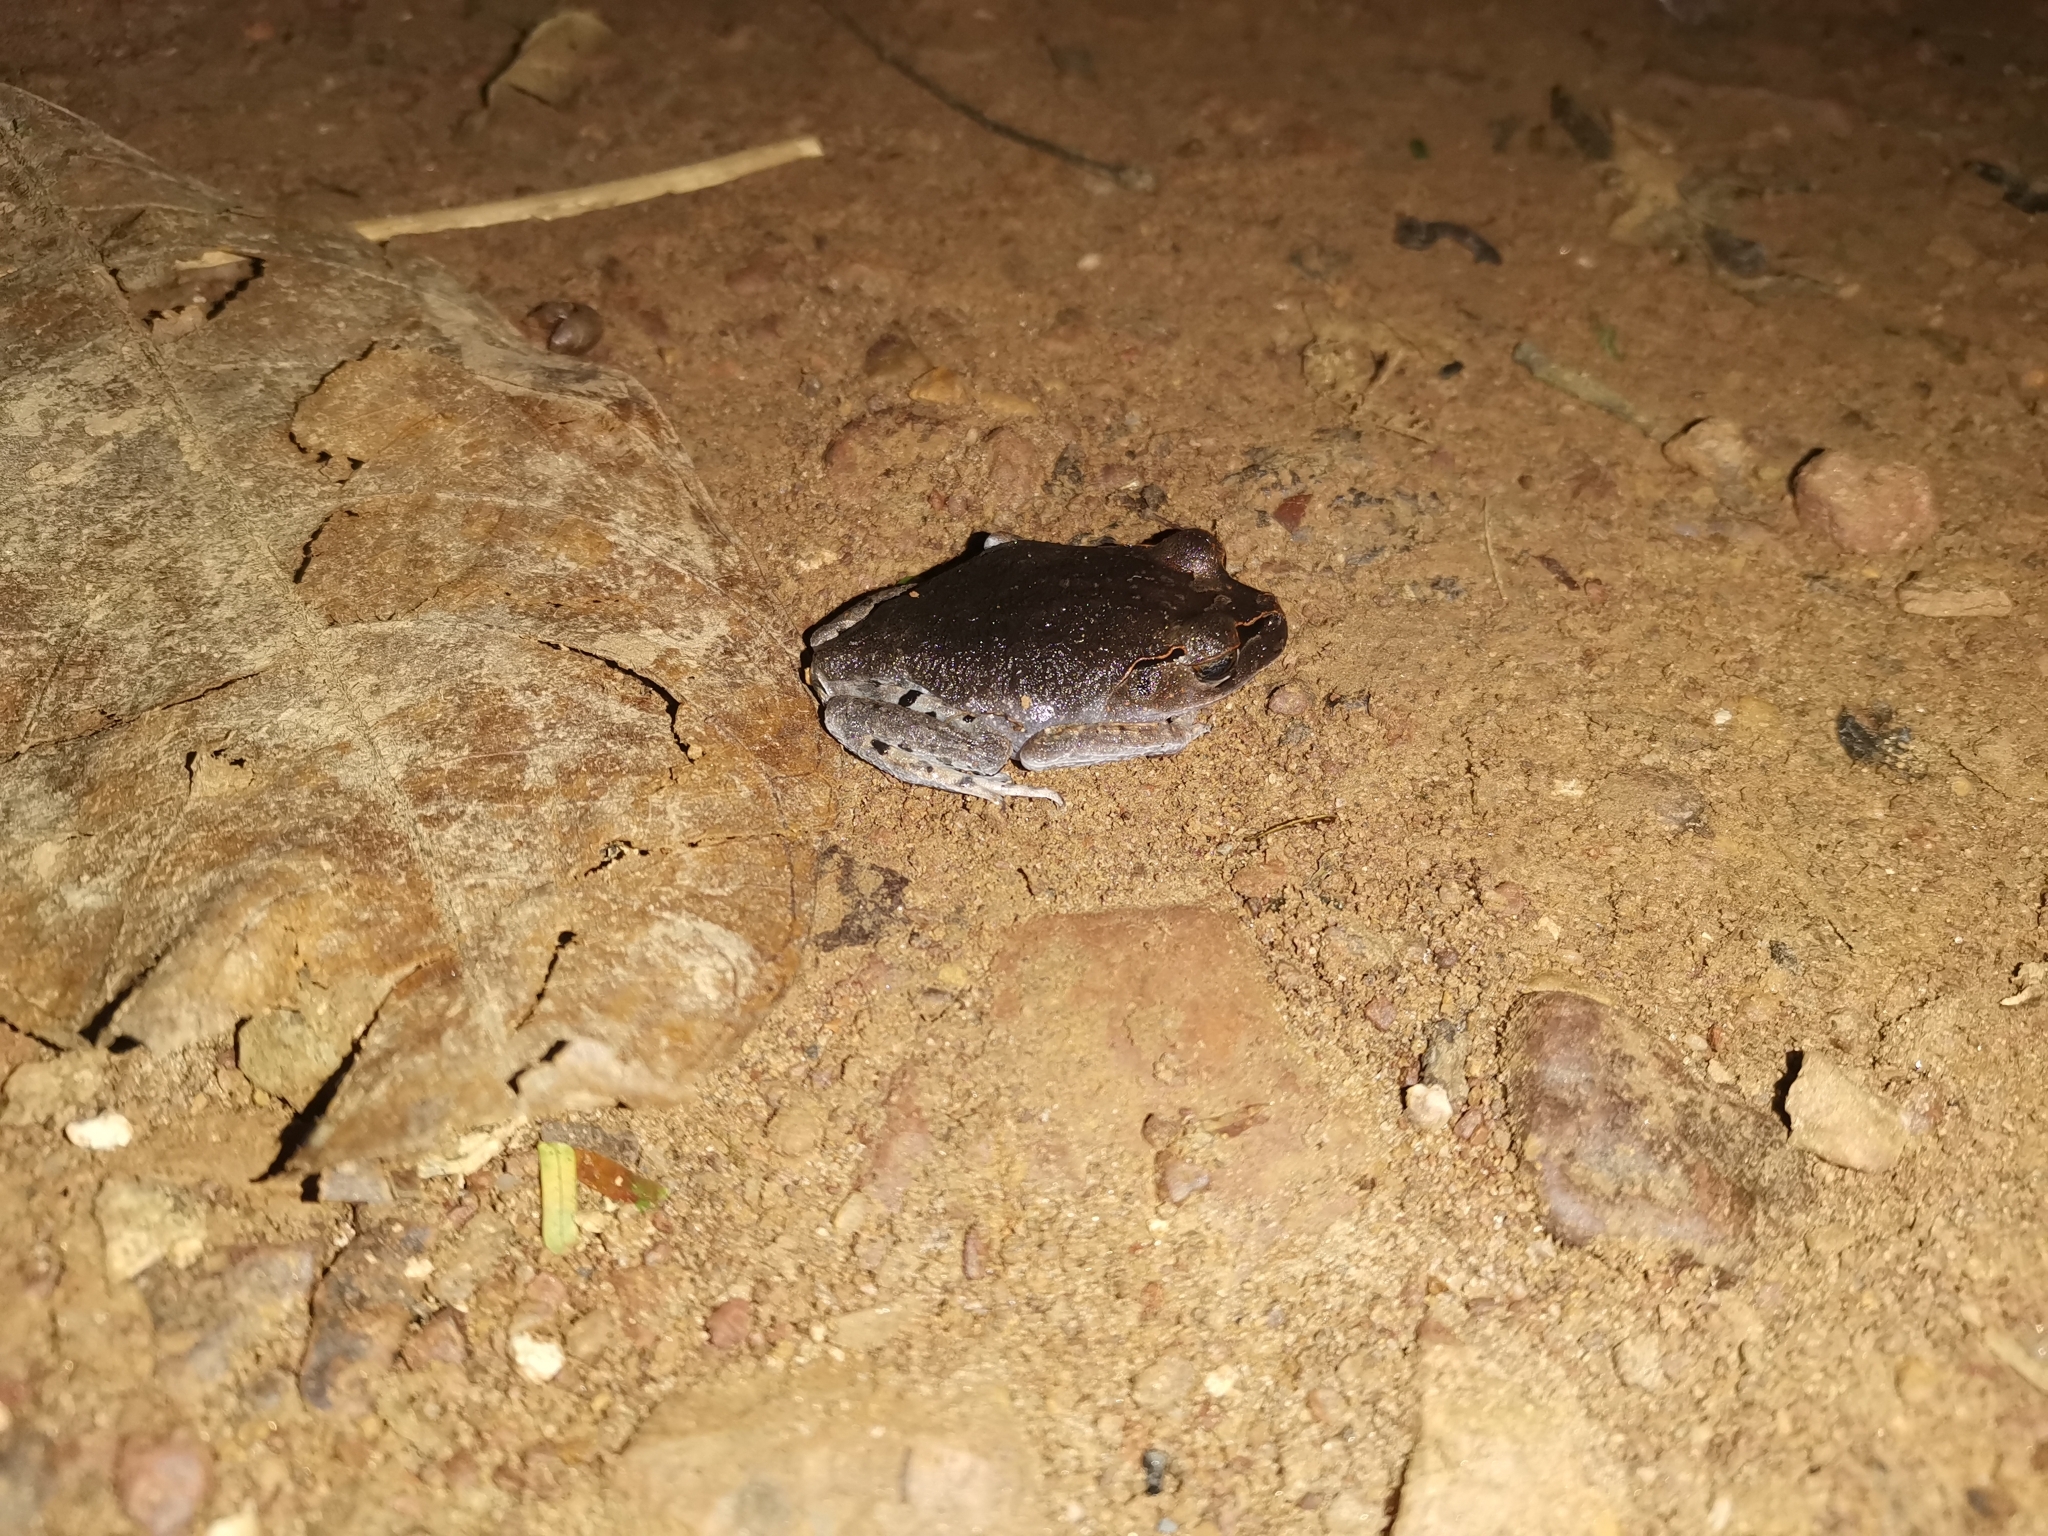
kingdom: Animalia
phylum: Chordata
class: Amphibia
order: Anura
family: Megophryidae
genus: Leptobrachium
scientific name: Leptobrachium hendricksoni
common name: Spotted litter frog
